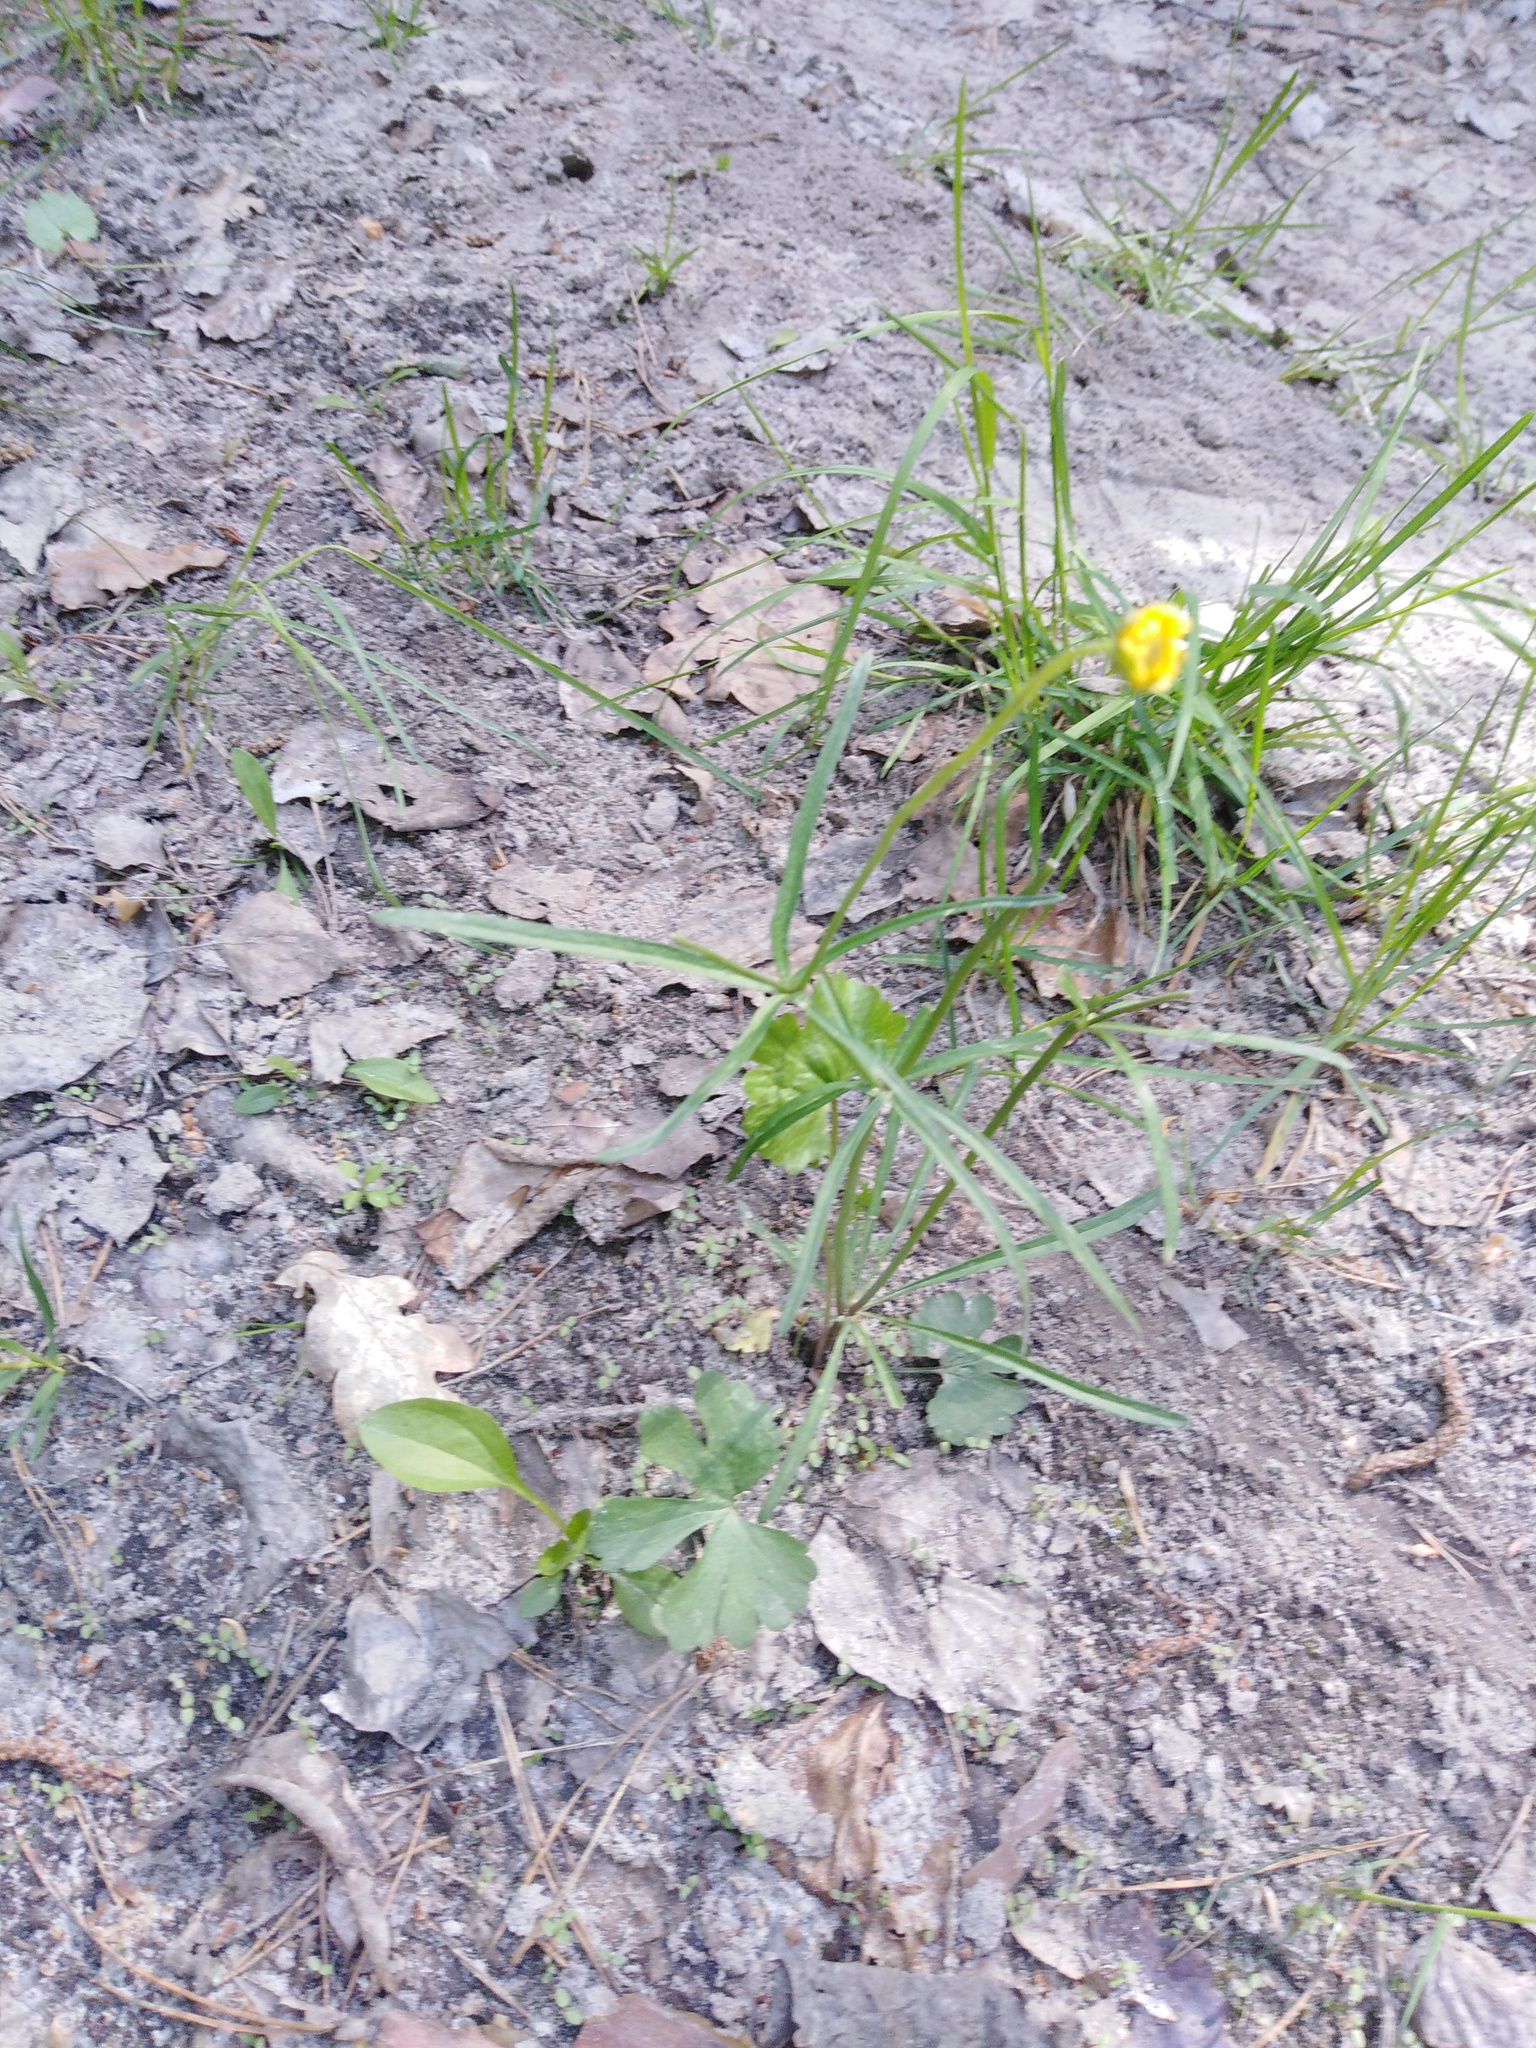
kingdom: Plantae
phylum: Tracheophyta
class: Magnoliopsida
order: Ranunculales
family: Ranunculaceae
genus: Ranunculus
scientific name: Ranunculus auricomus
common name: Goldilocks buttercup
